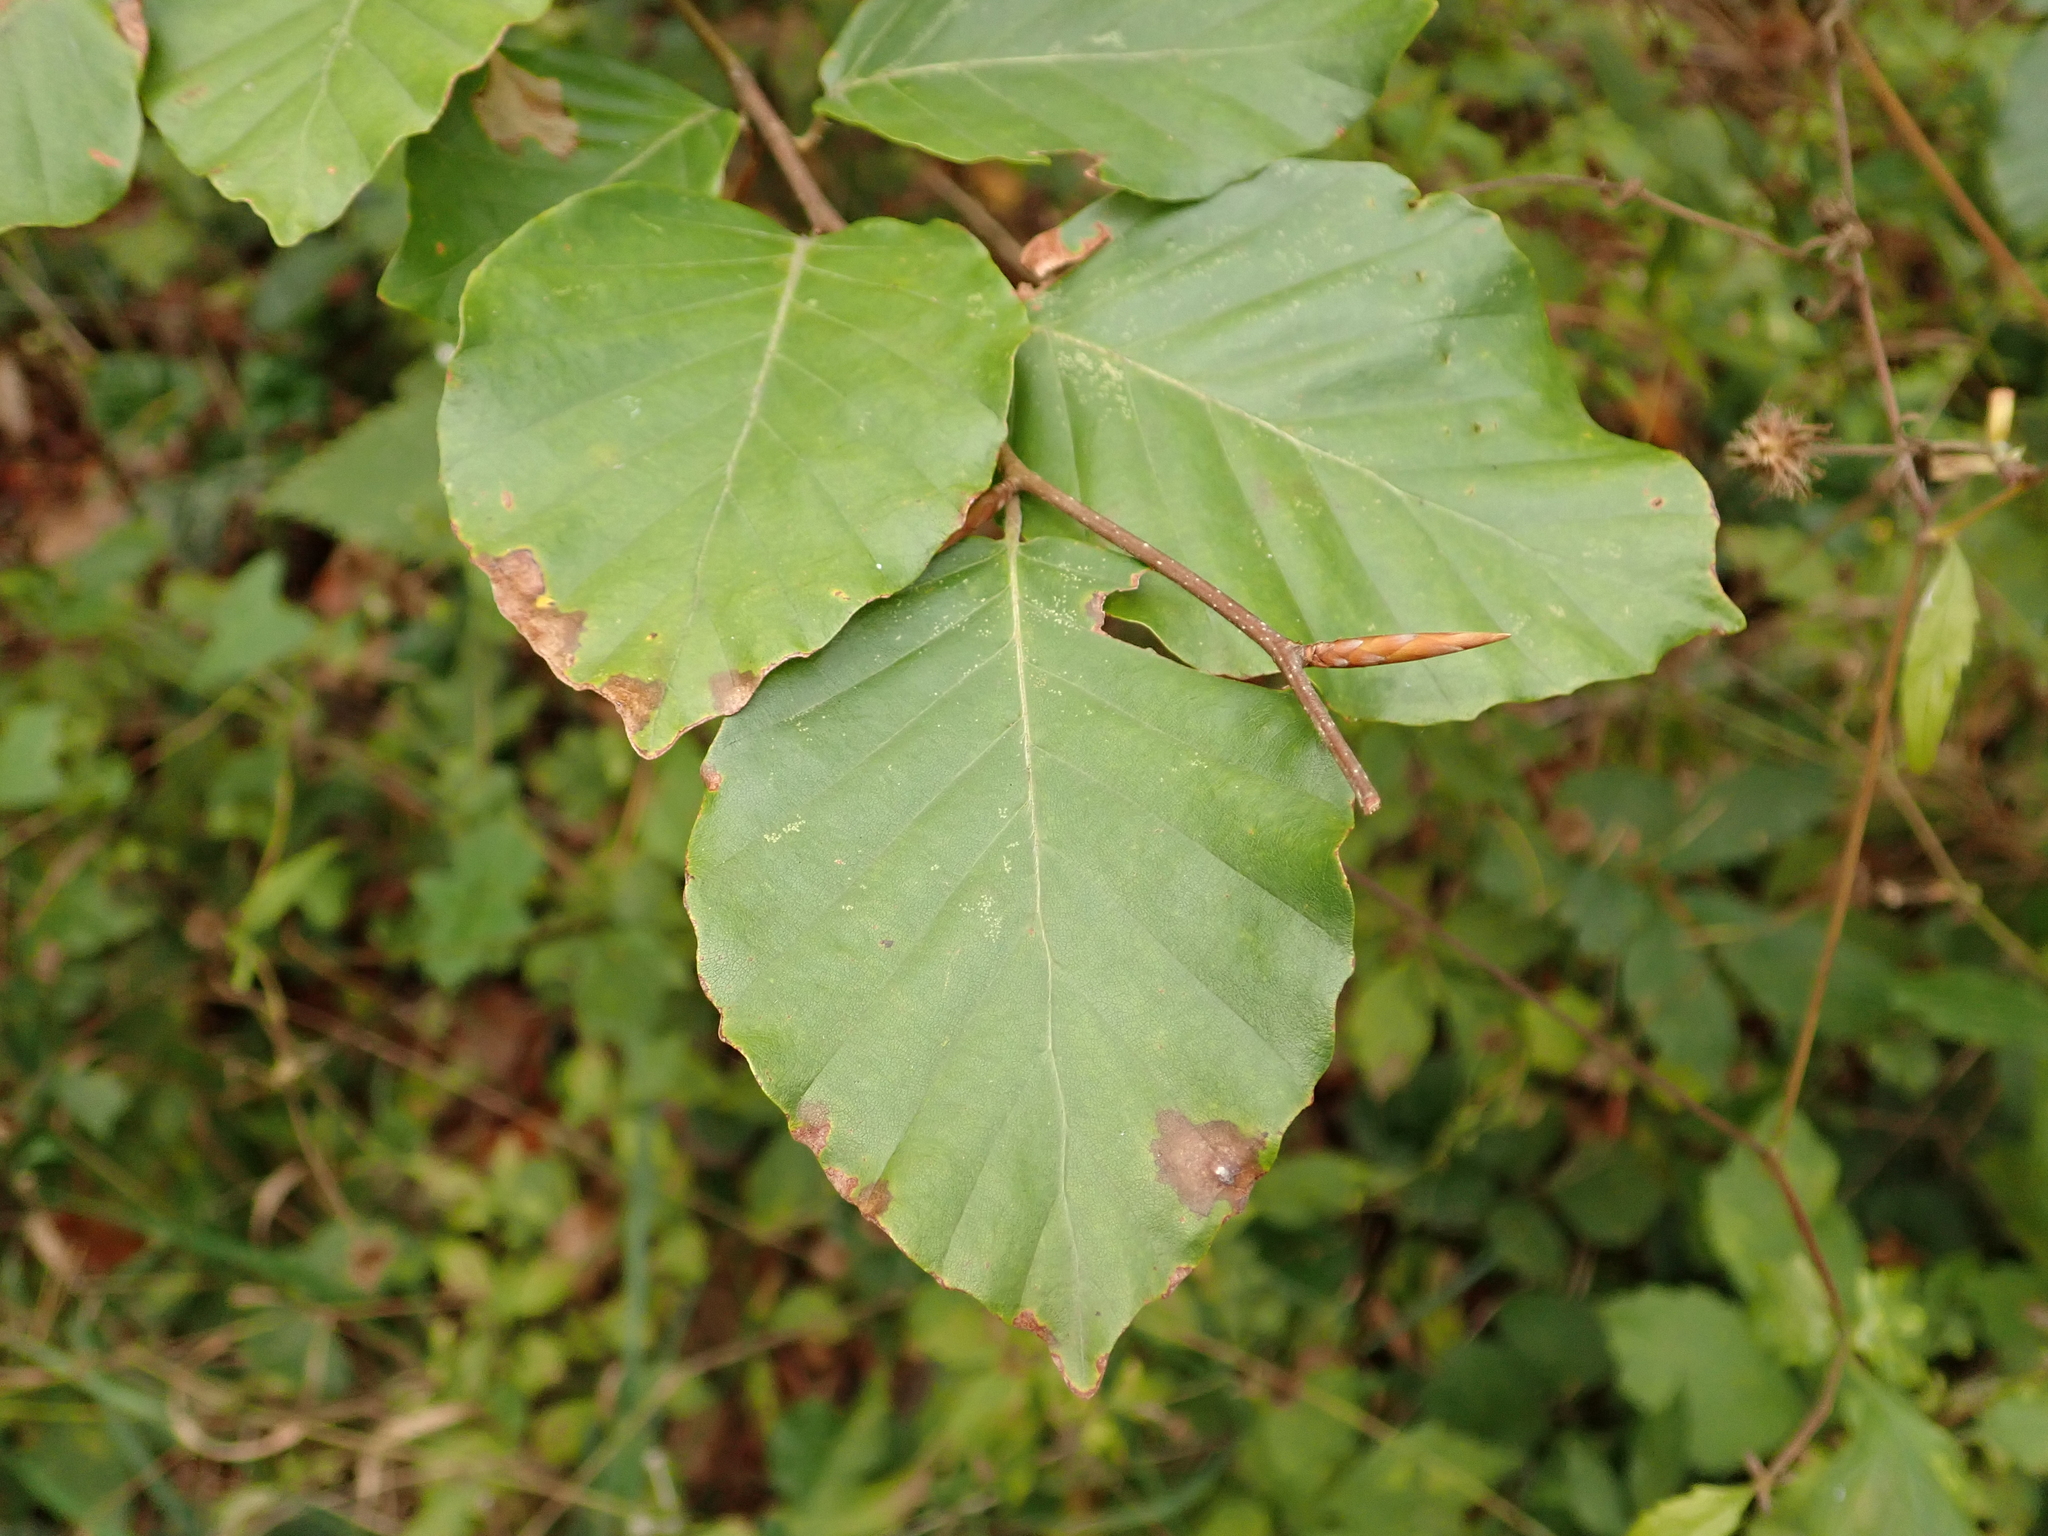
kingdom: Plantae
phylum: Tracheophyta
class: Magnoliopsida
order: Fagales
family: Fagaceae
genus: Fagus
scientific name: Fagus sylvatica
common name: Beech
